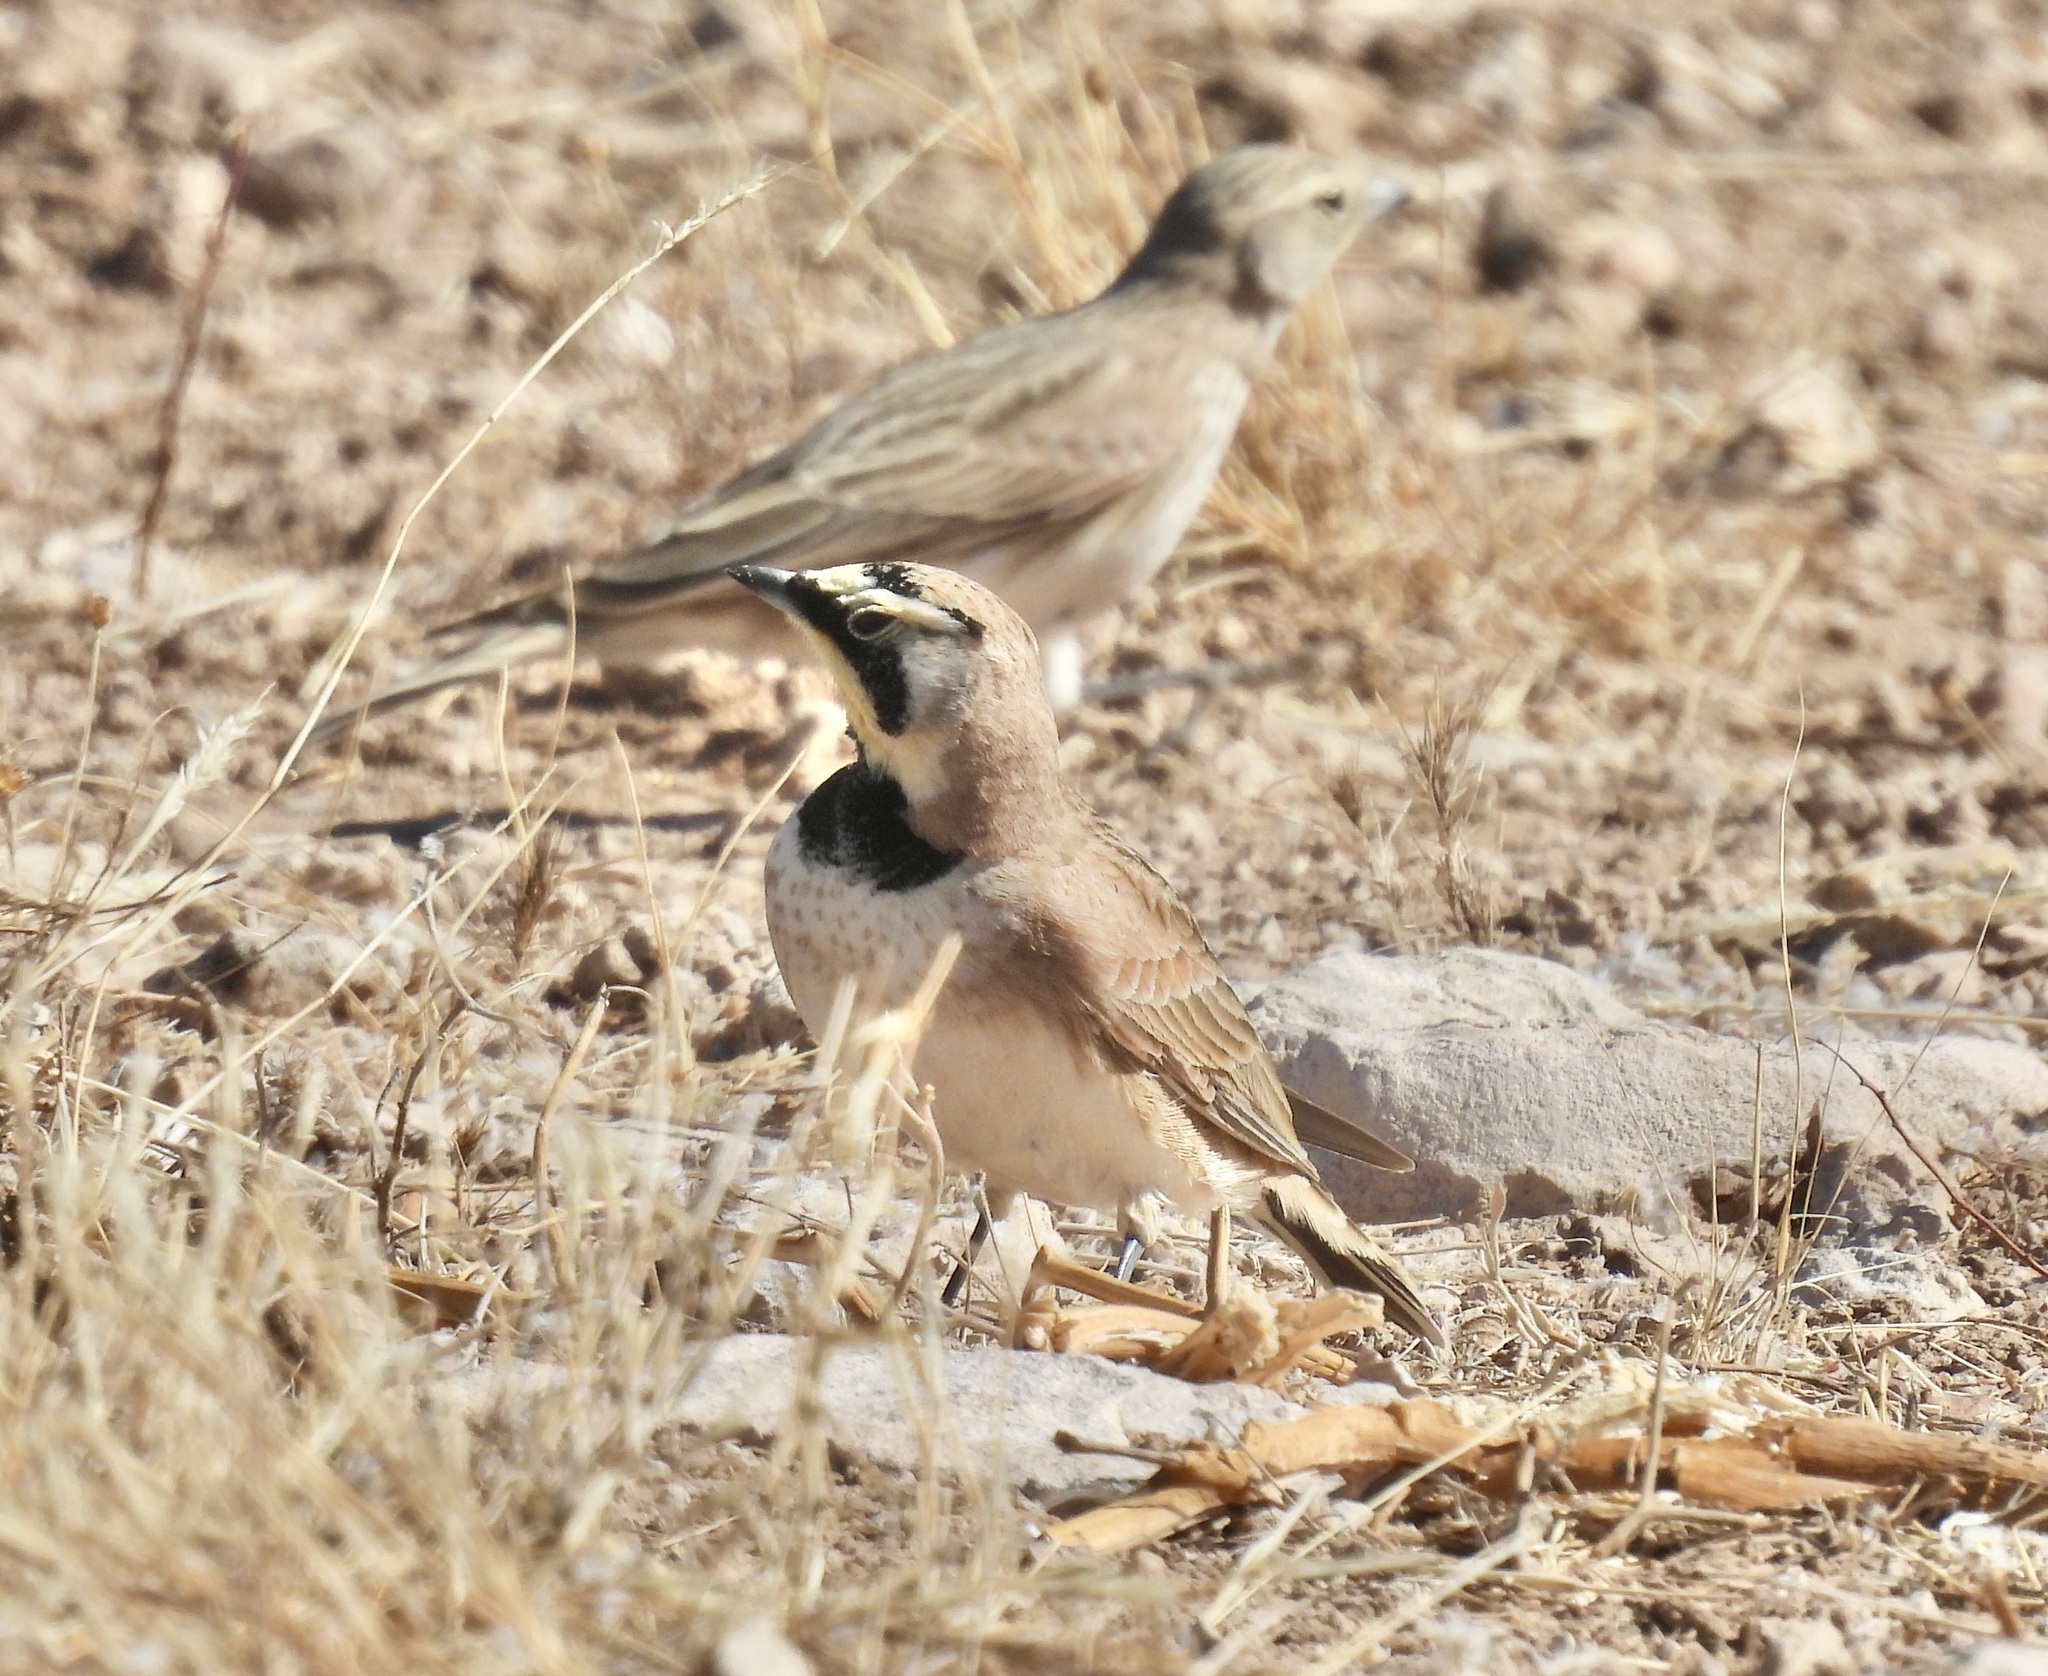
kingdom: Animalia
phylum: Chordata
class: Aves
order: Passeriformes
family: Alaudidae
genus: Eremophila
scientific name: Eremophila alpestris
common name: Horned lark
